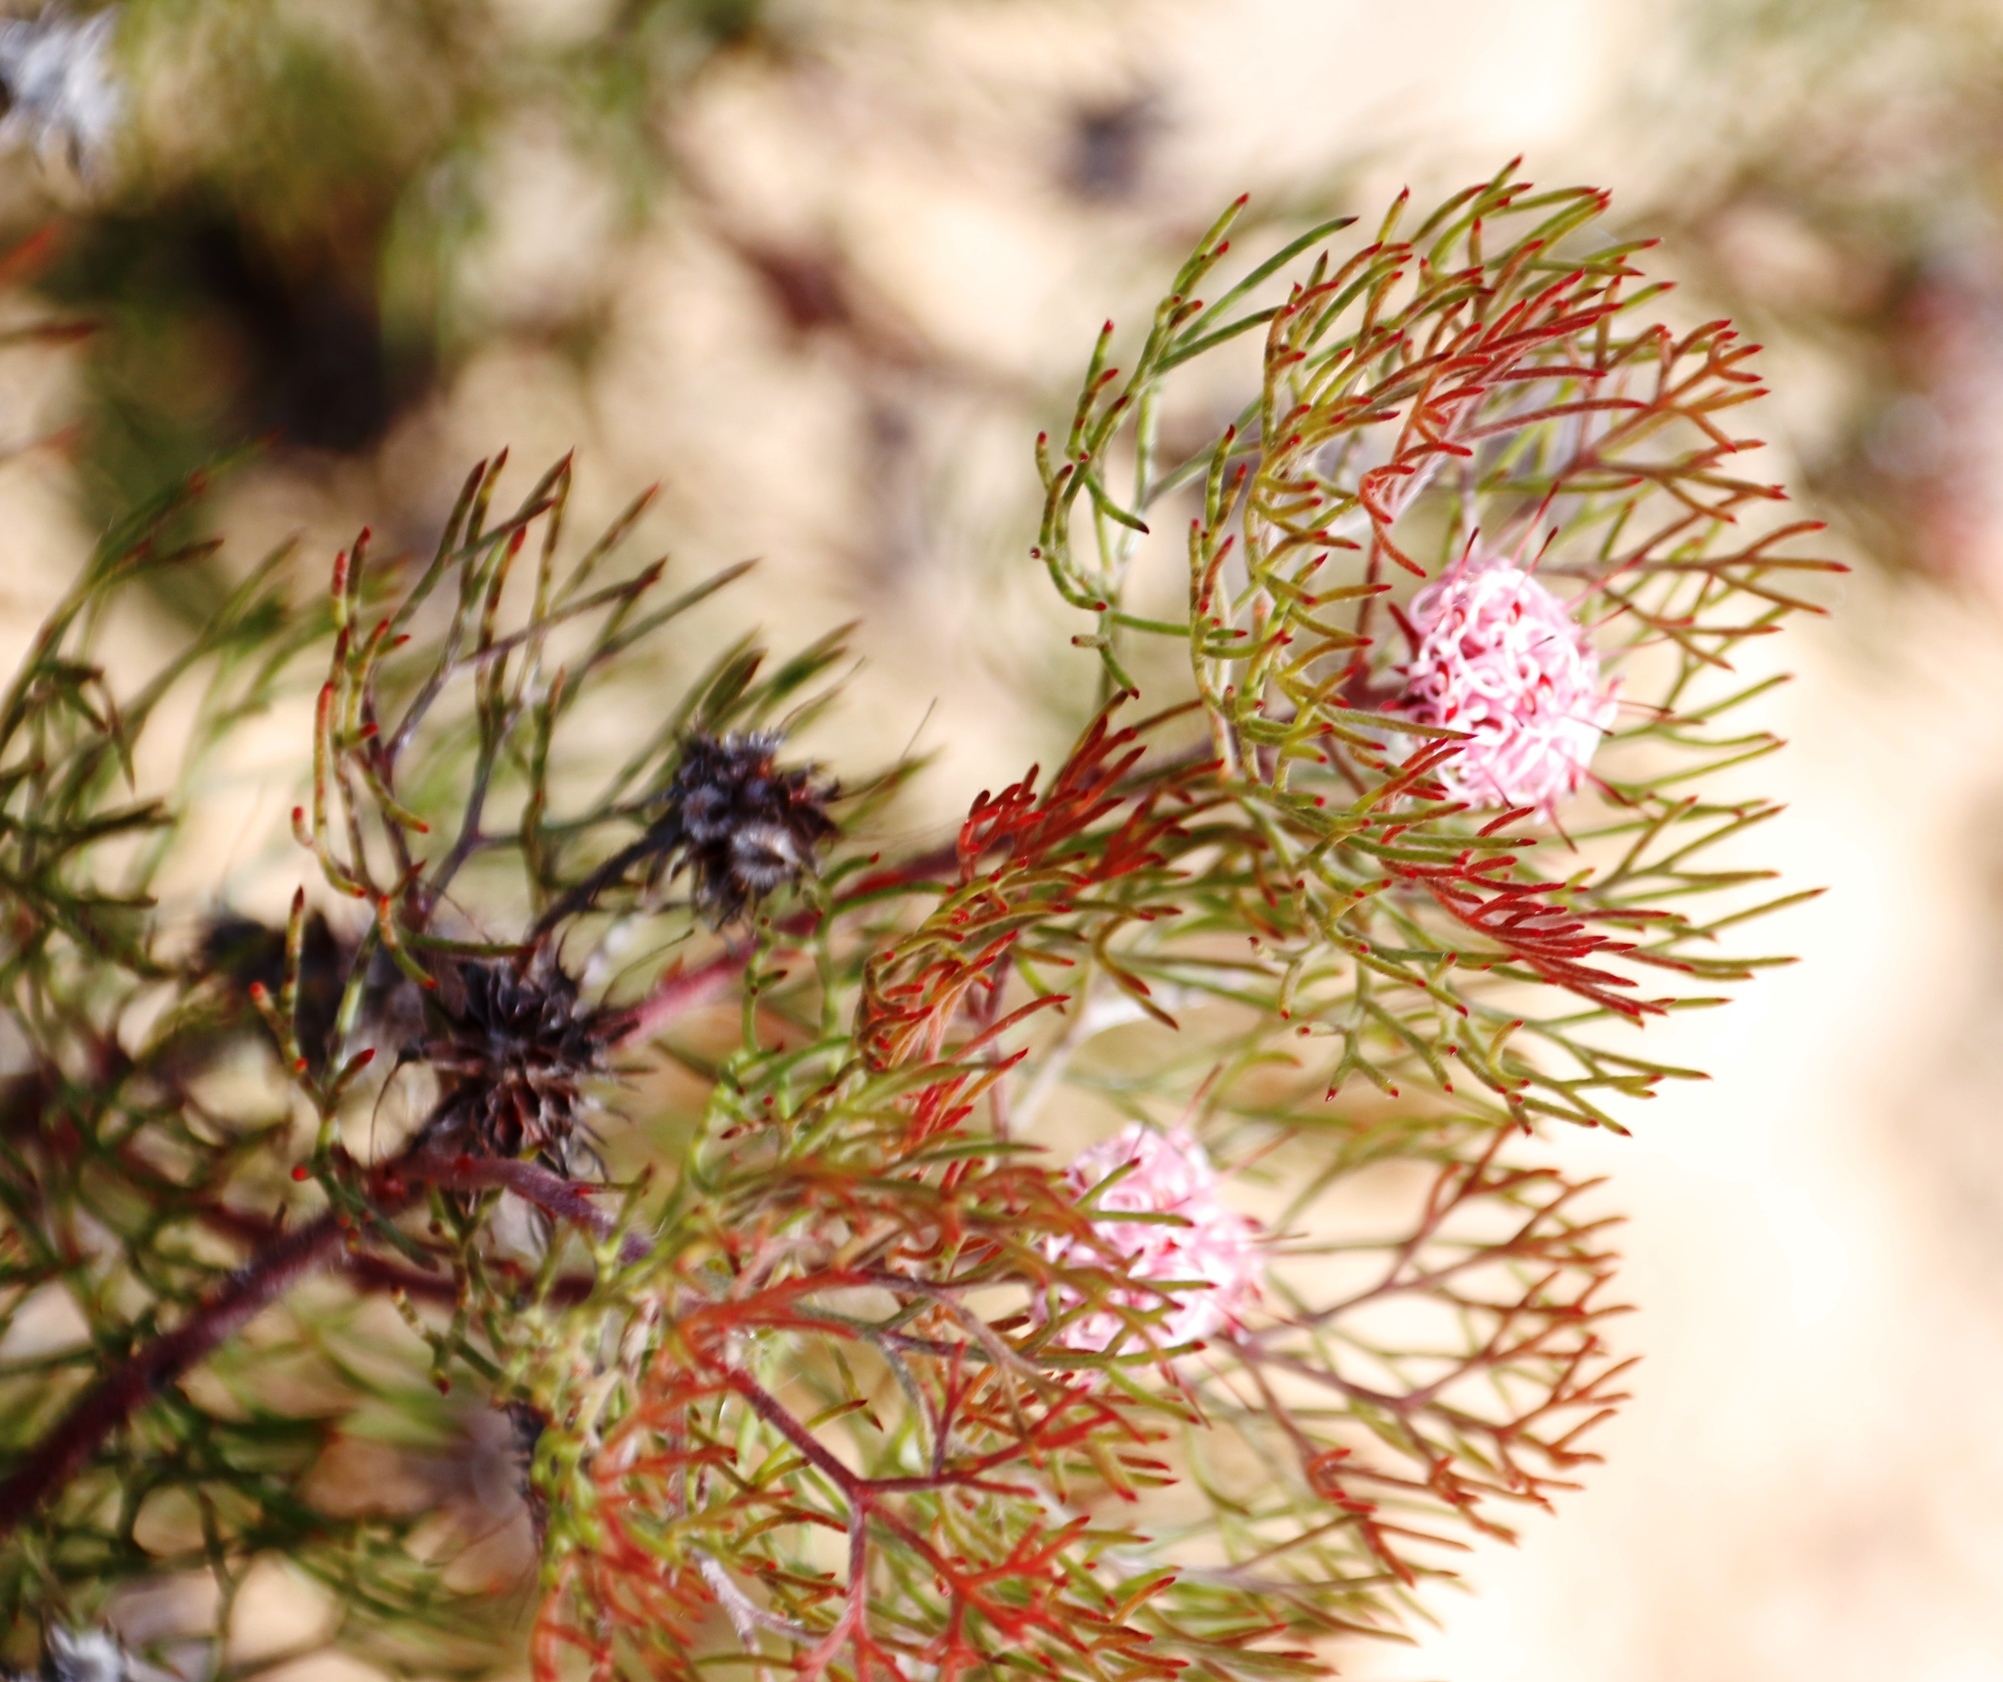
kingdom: Plantae
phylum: Tracheophyta
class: Magnoliopsida
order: Proteales
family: Proteaceae
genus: Serruria
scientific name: Serruria fasciflora
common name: Common pin spiderhead
